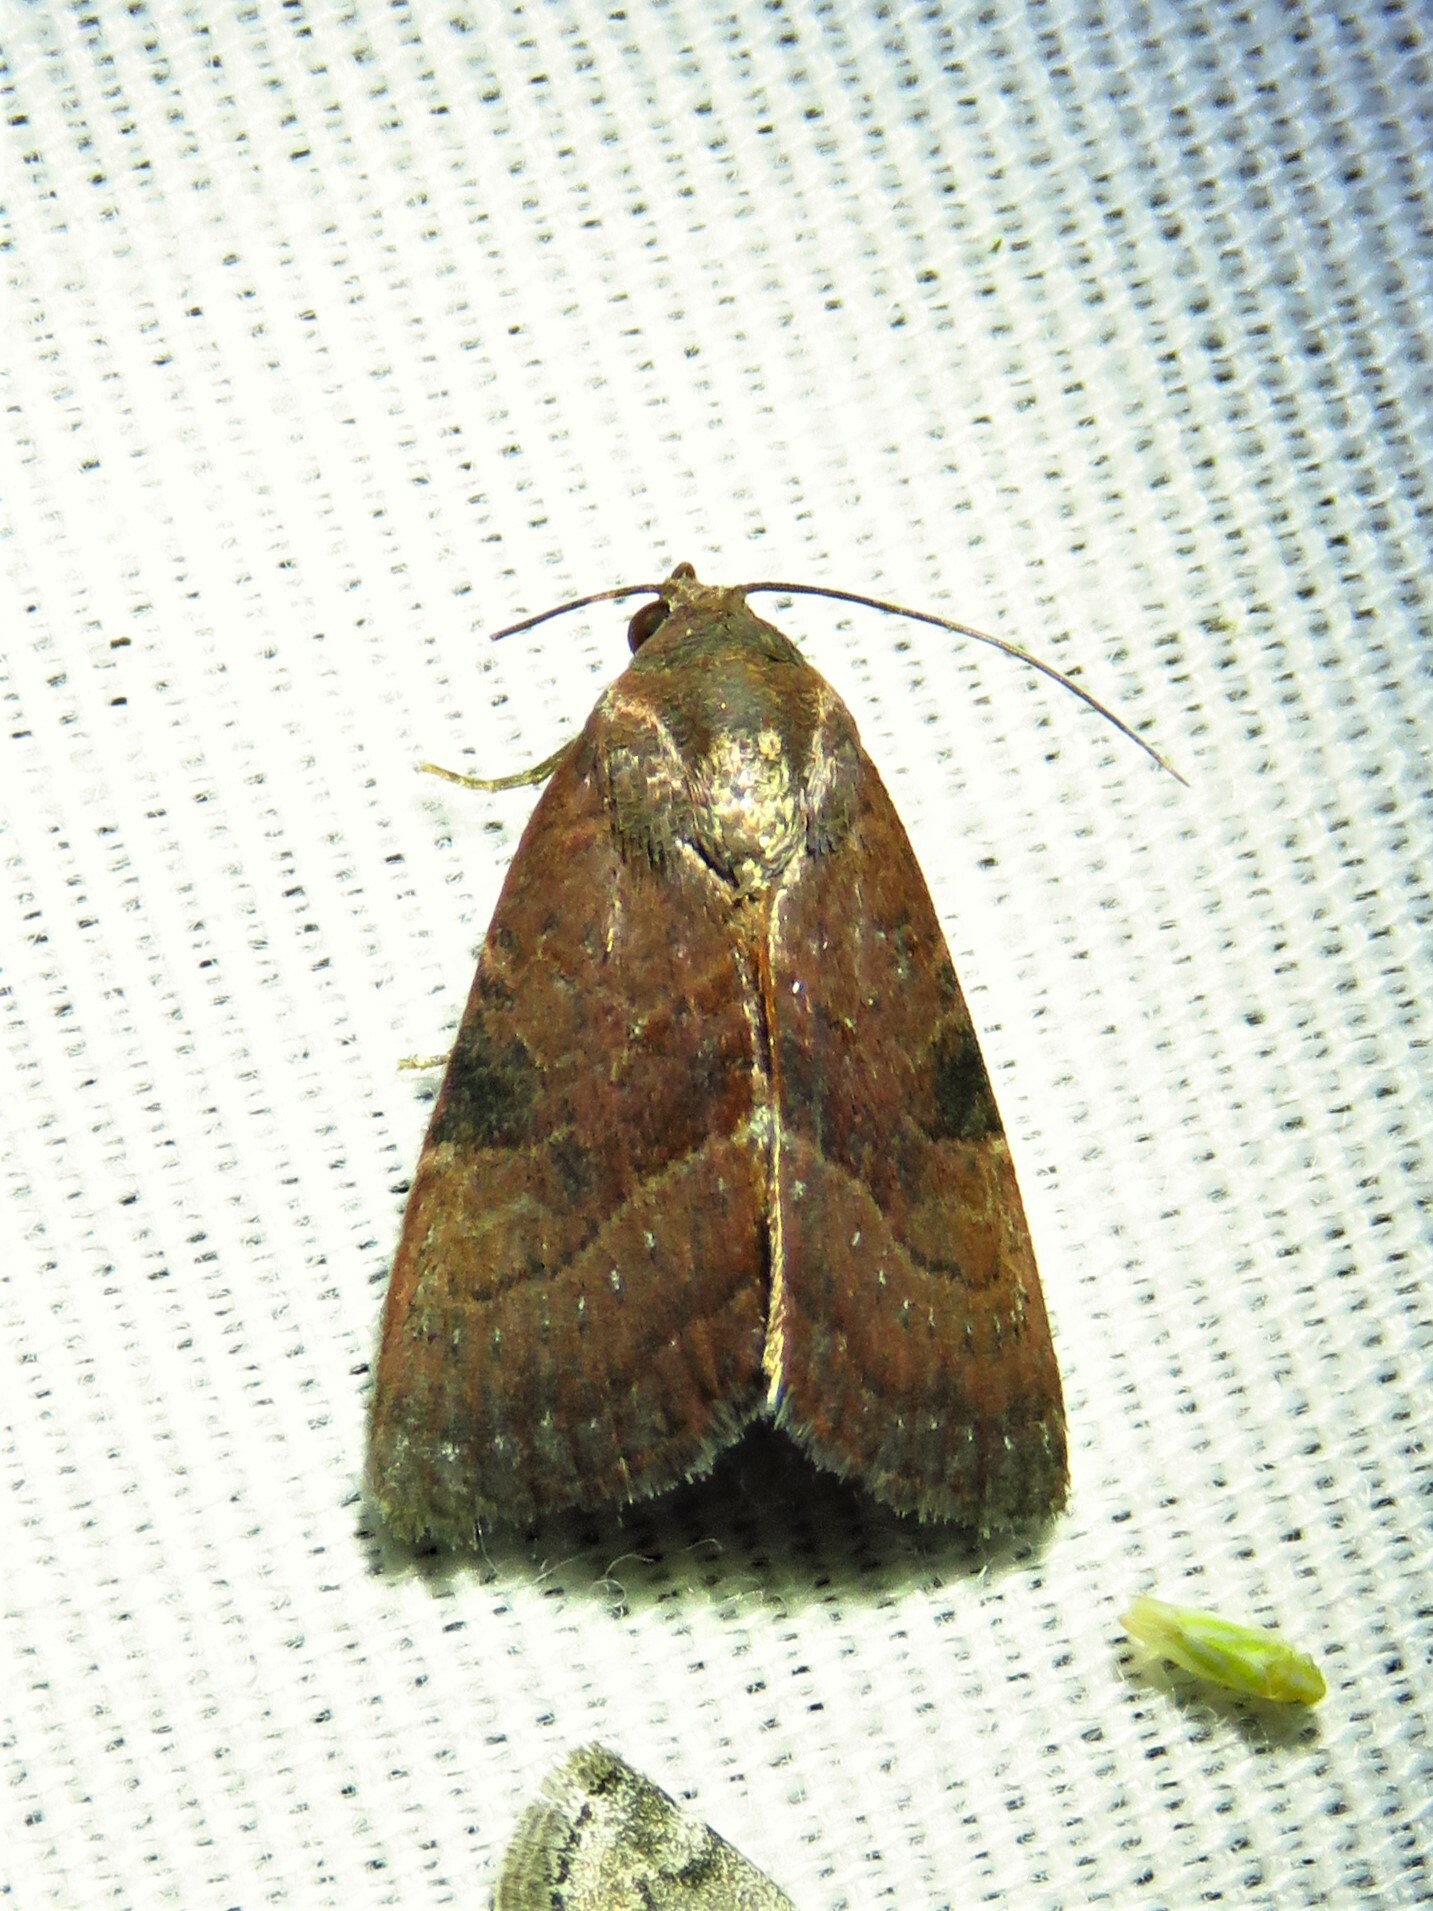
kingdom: Animalia
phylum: Arthropoda
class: Insecta
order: Lepidoptera
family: Noctuidae
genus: Galgula
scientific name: Galgula partita
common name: Wedgeling
